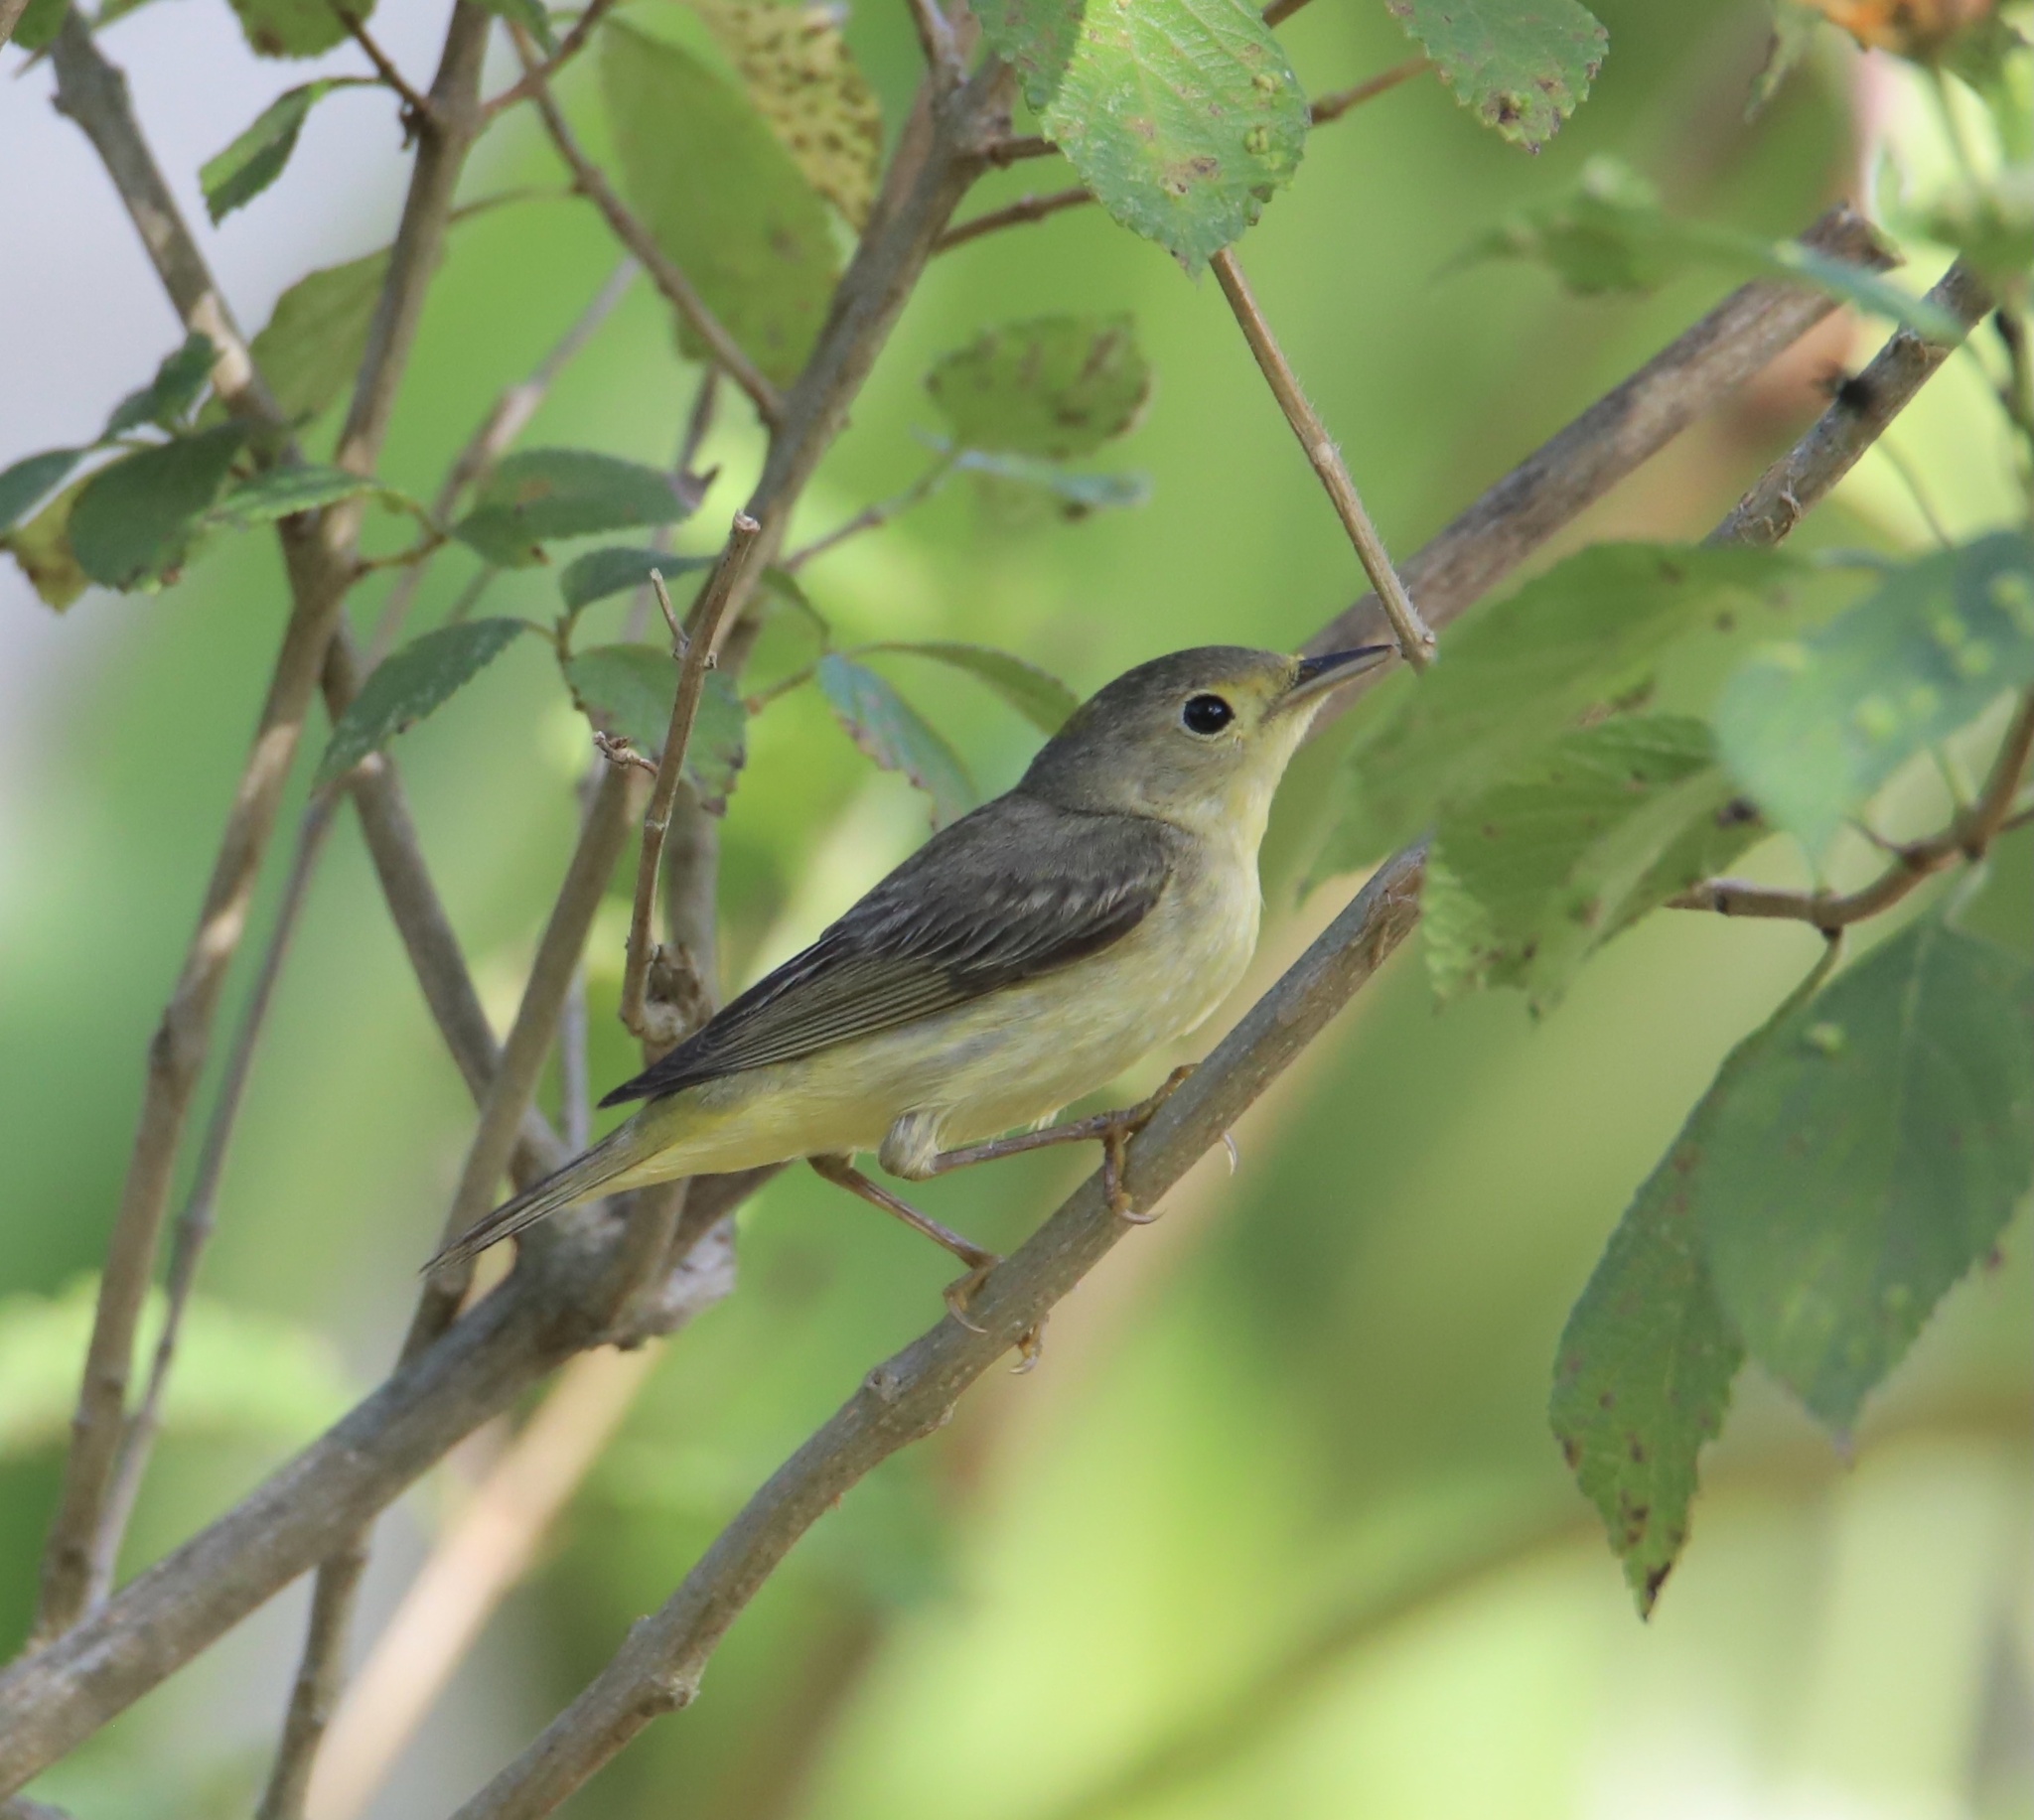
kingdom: Animalia
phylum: Chordata
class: Aves
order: Passeriformes
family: Parulidae
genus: Setophaga
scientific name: Setophaga petechia
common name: Yellow warbler
